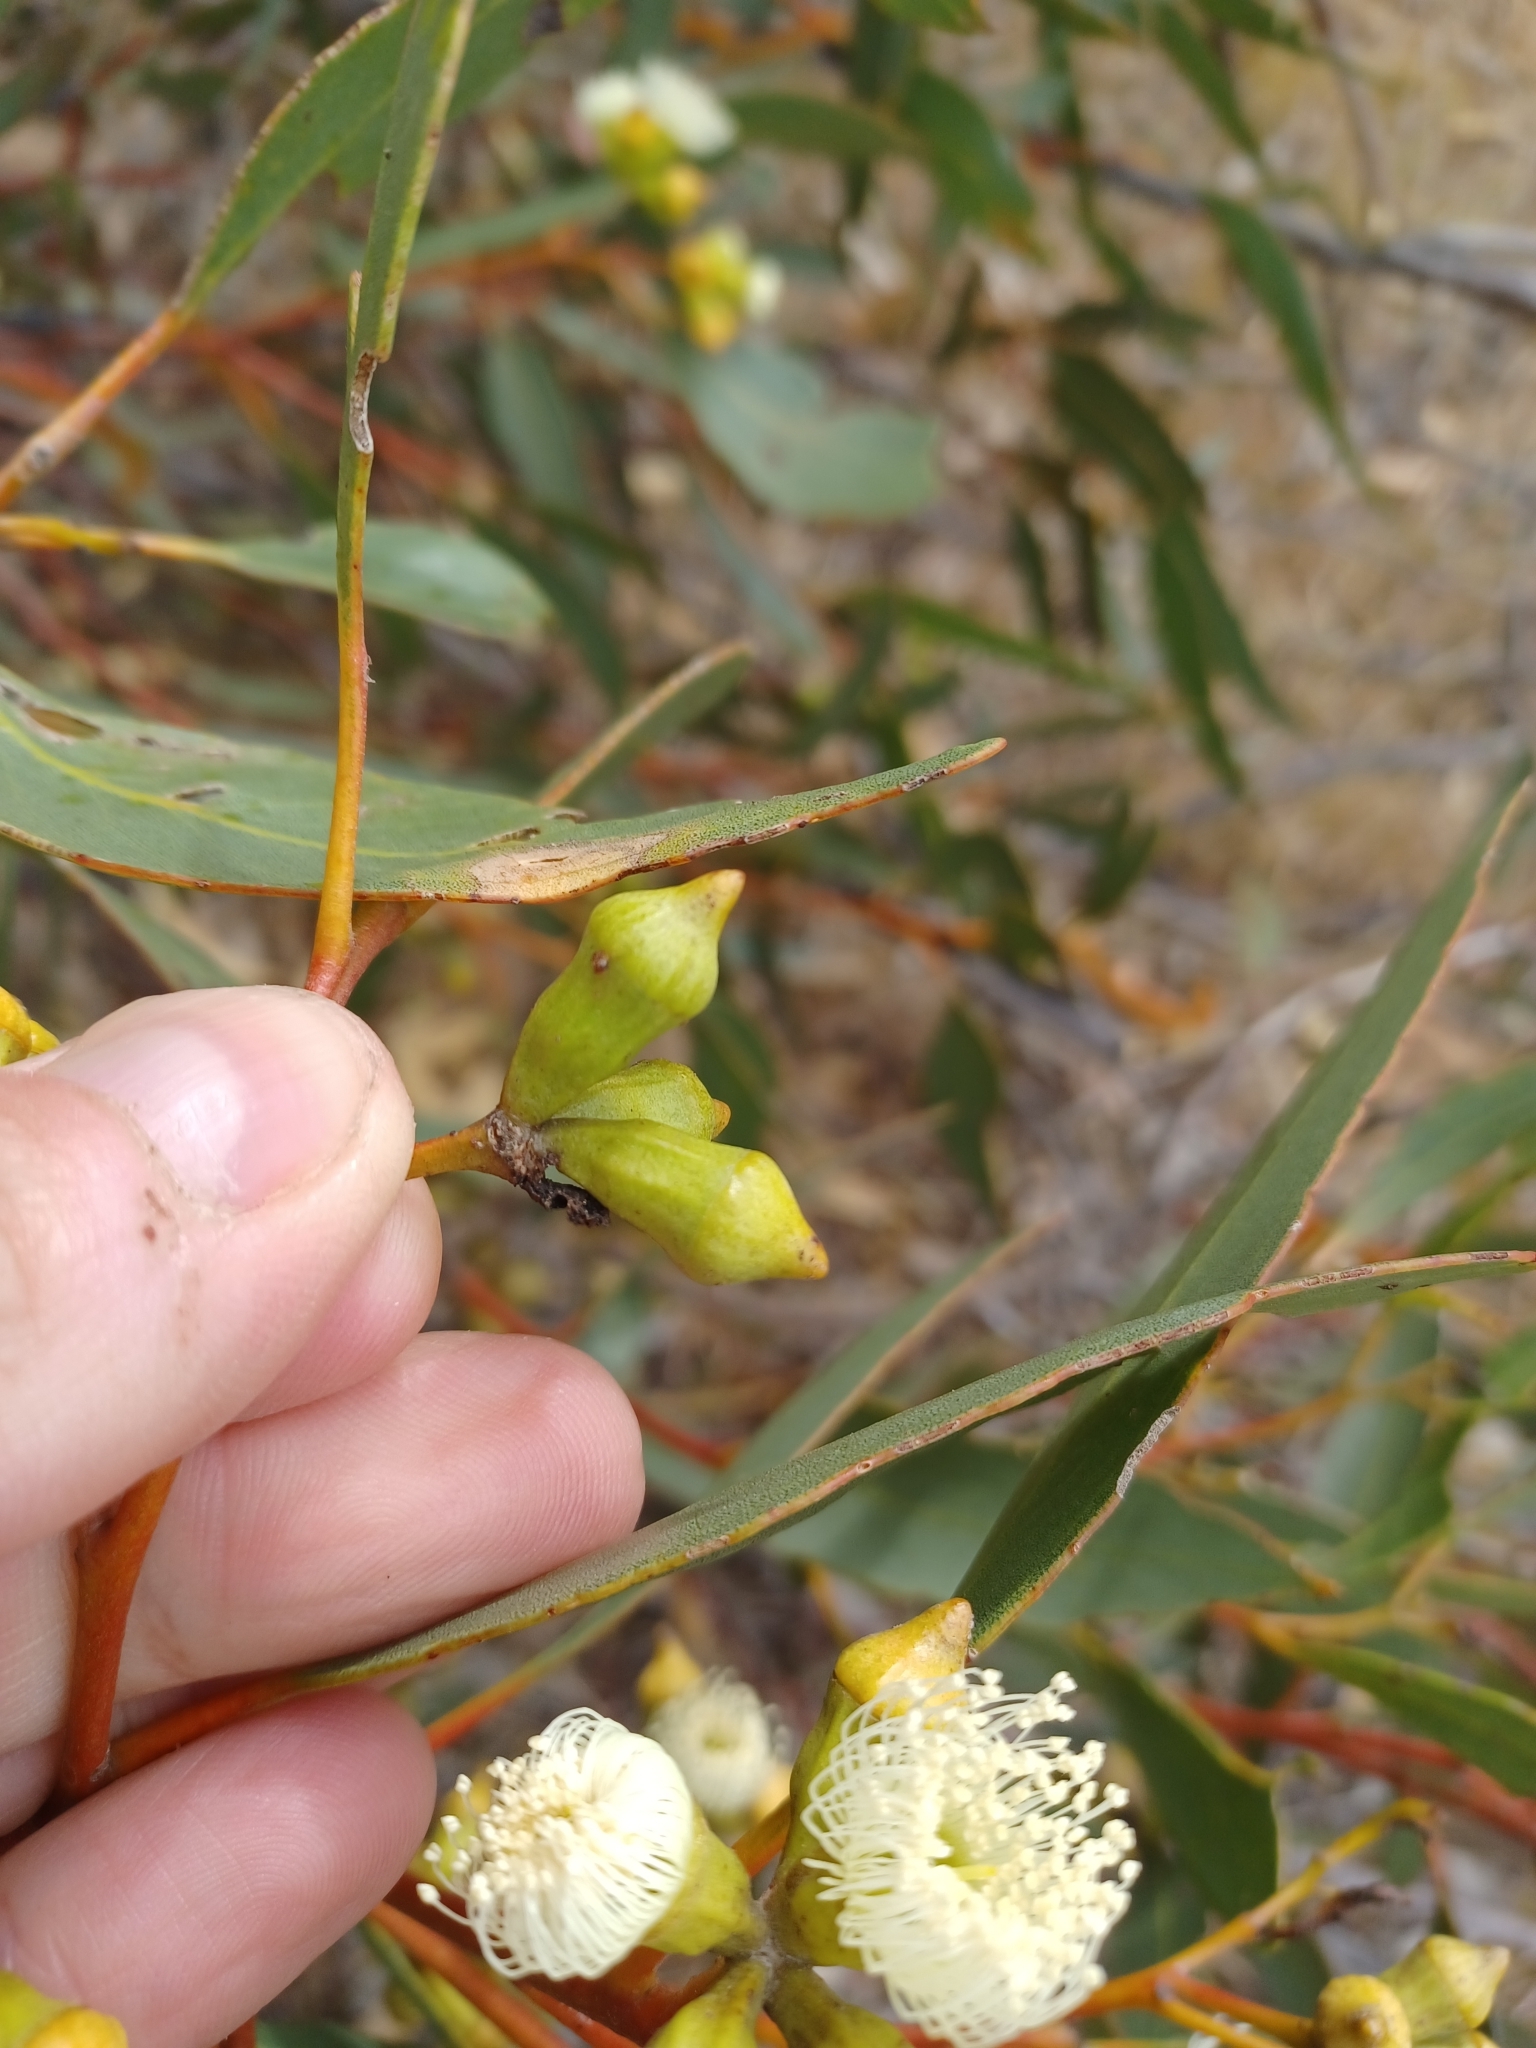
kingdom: Plantae
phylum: Tracheophyta
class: Magnoliopsida
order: Myrtales
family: Myrtaceae
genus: Eucalyptus
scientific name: Eucalyptus incrassata
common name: Ridge-fruit mallee
